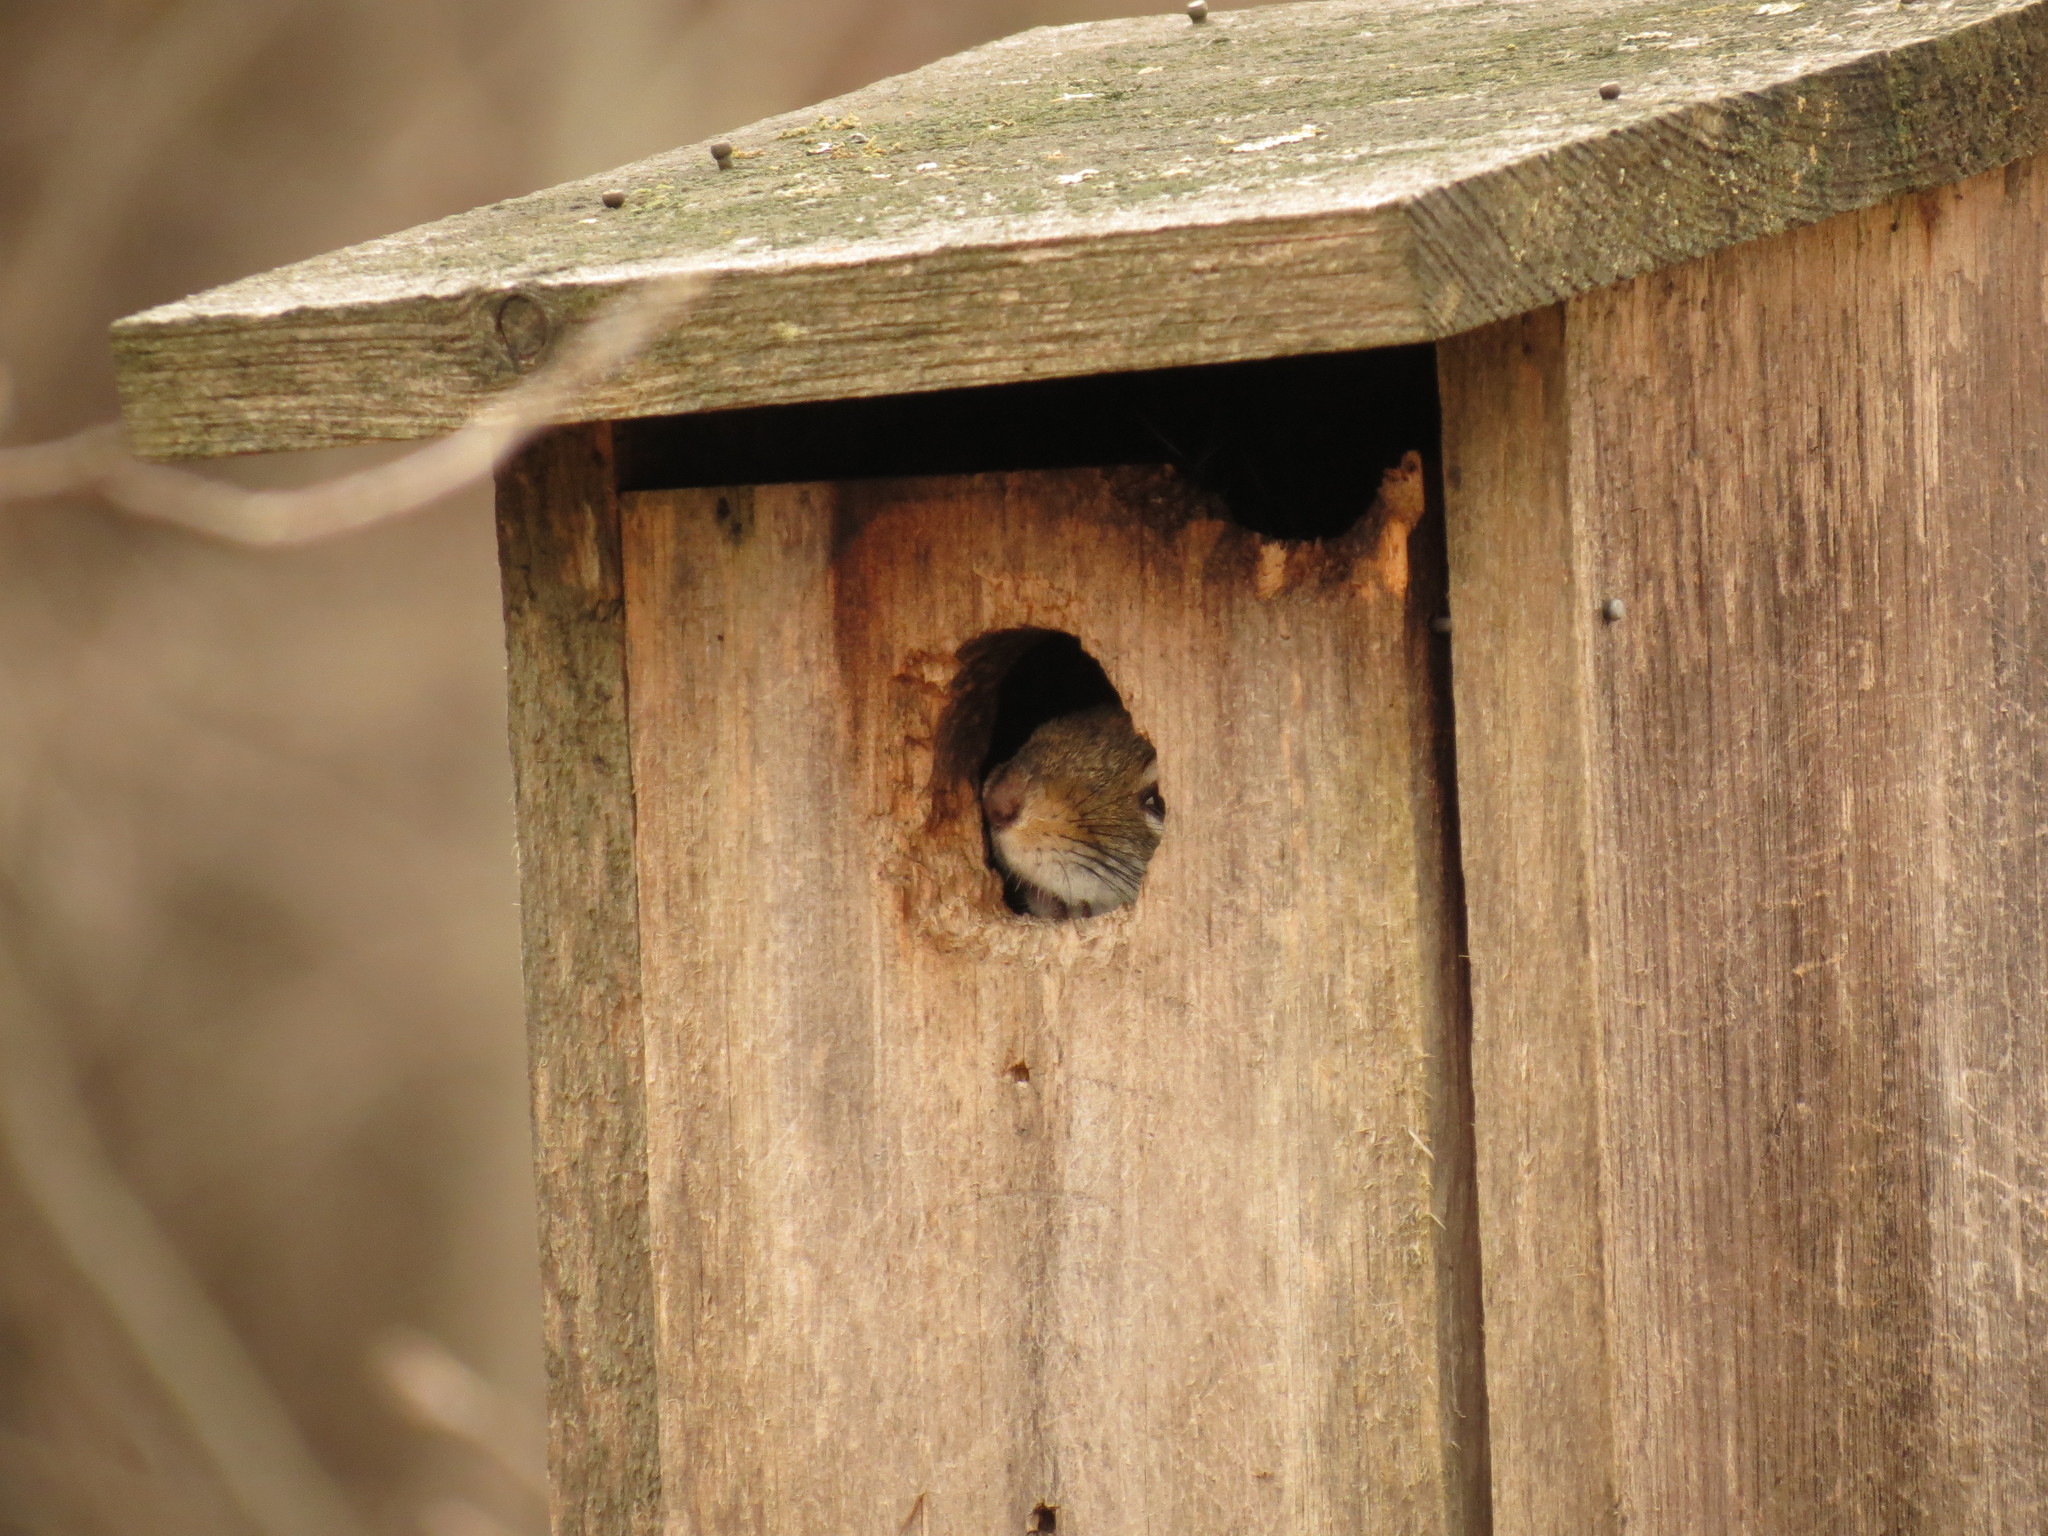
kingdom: Animalia
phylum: Chordata
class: Mammalia
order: Rodentia
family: Sciuridae
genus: Tamiasciurus
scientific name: Tamiasciurus hudsonicus
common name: Red squirrel
